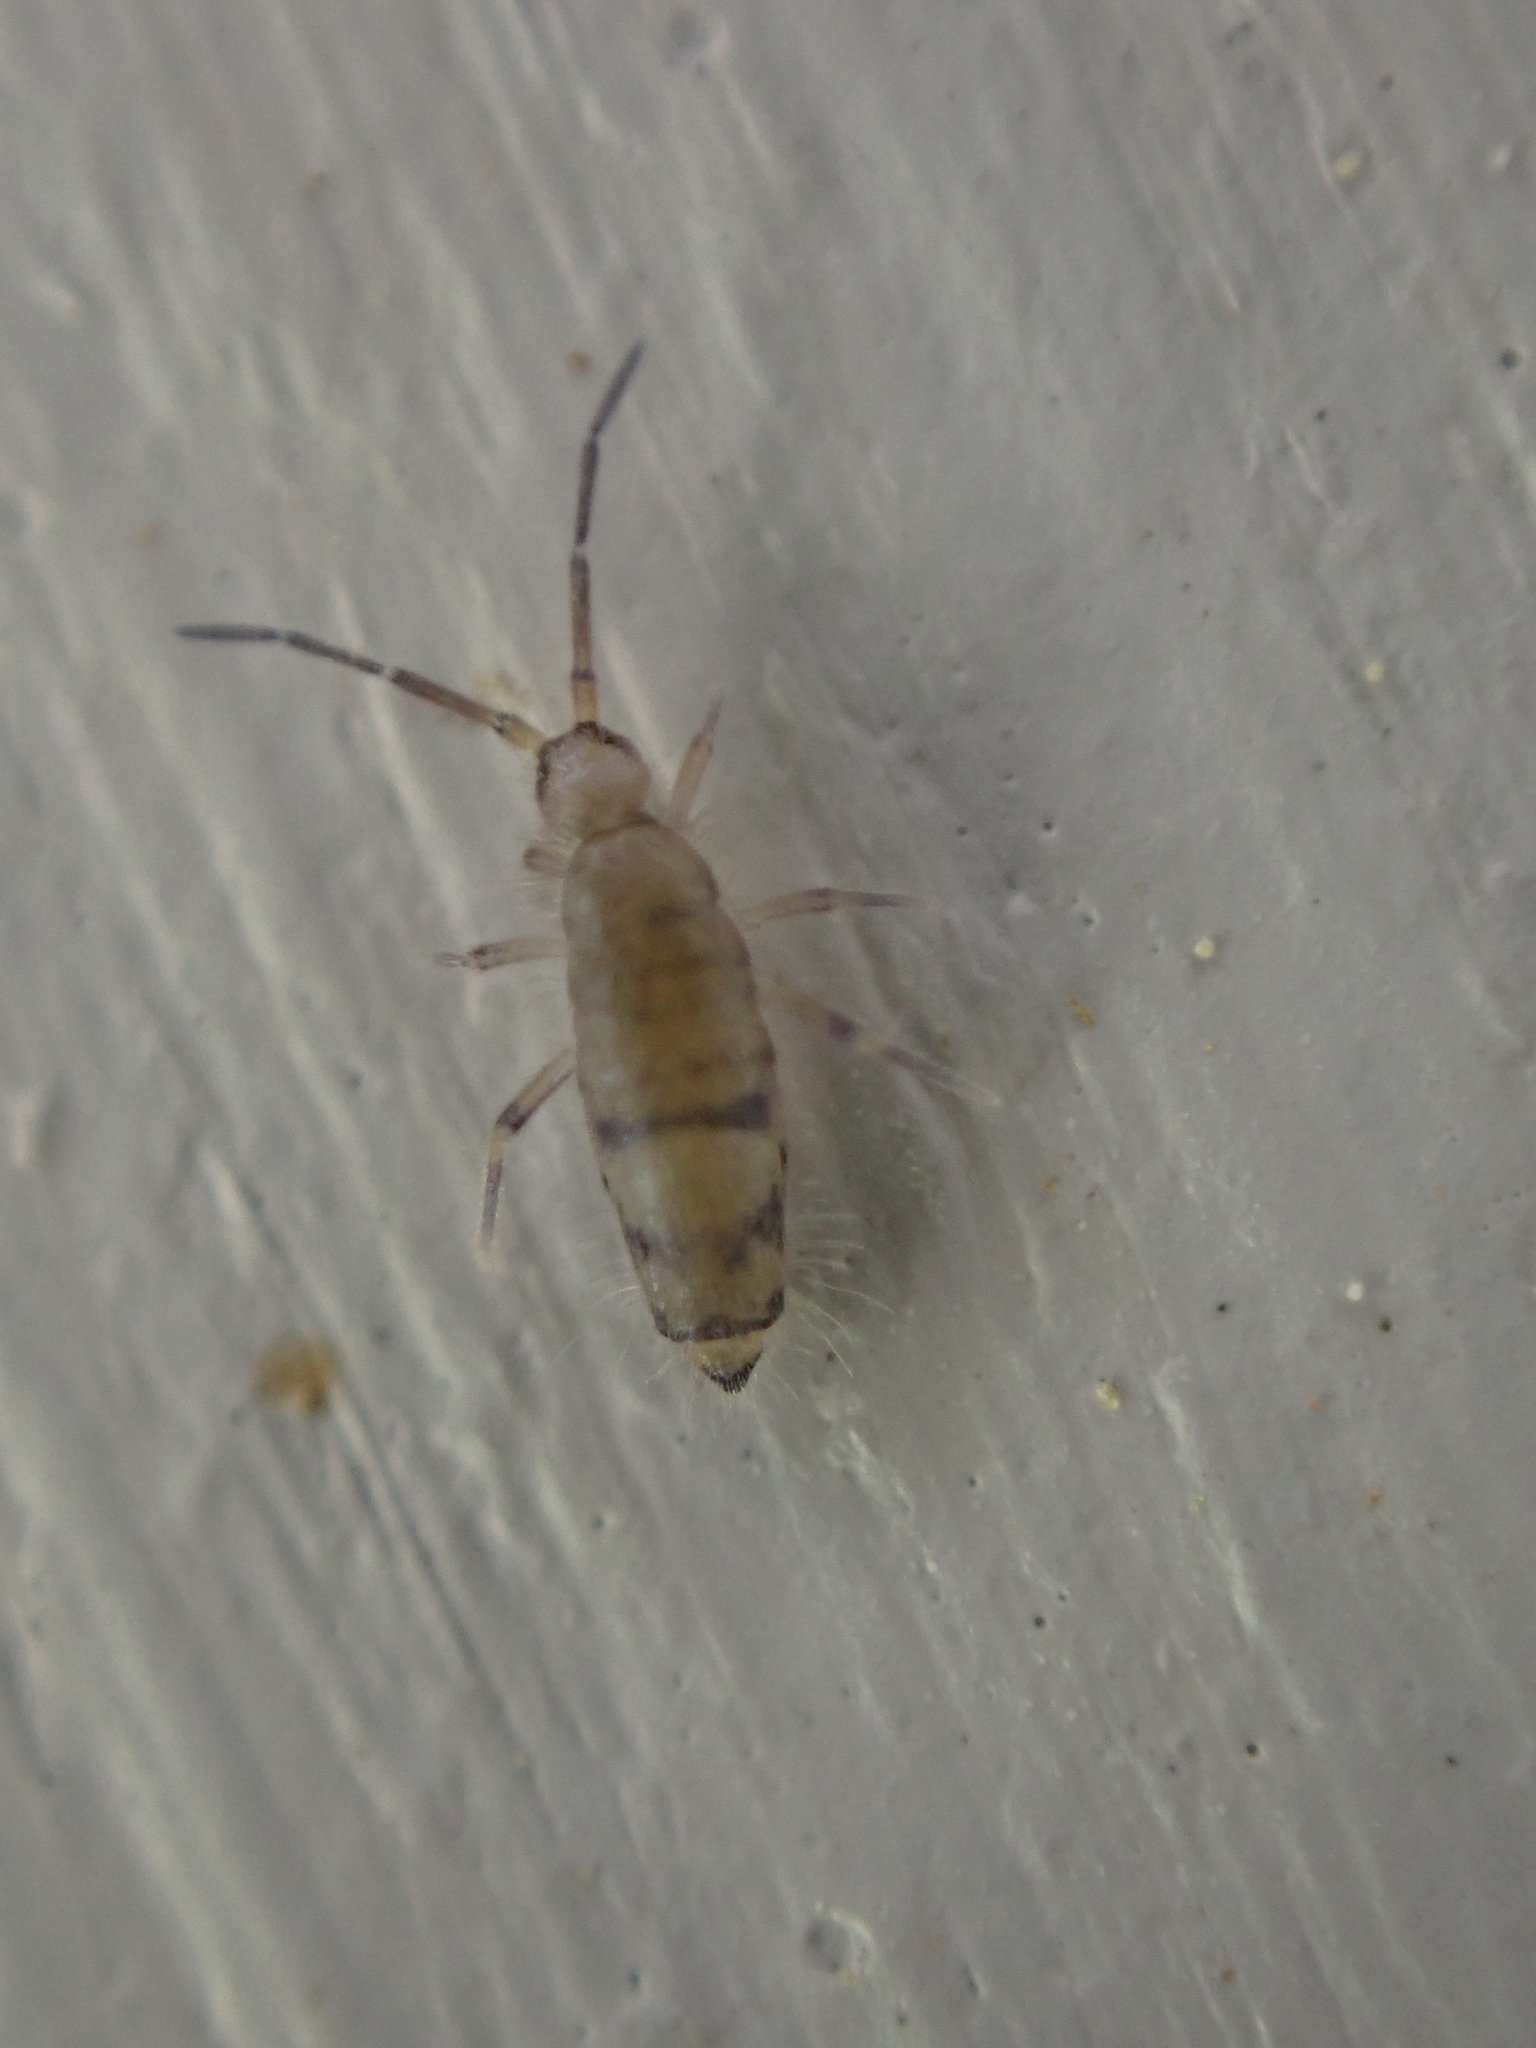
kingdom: Animalia
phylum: Arthropoda
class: Collembola
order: Entomobryomorpha
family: Entomobryidae
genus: Willowsia
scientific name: Willowsia nigromaculata
